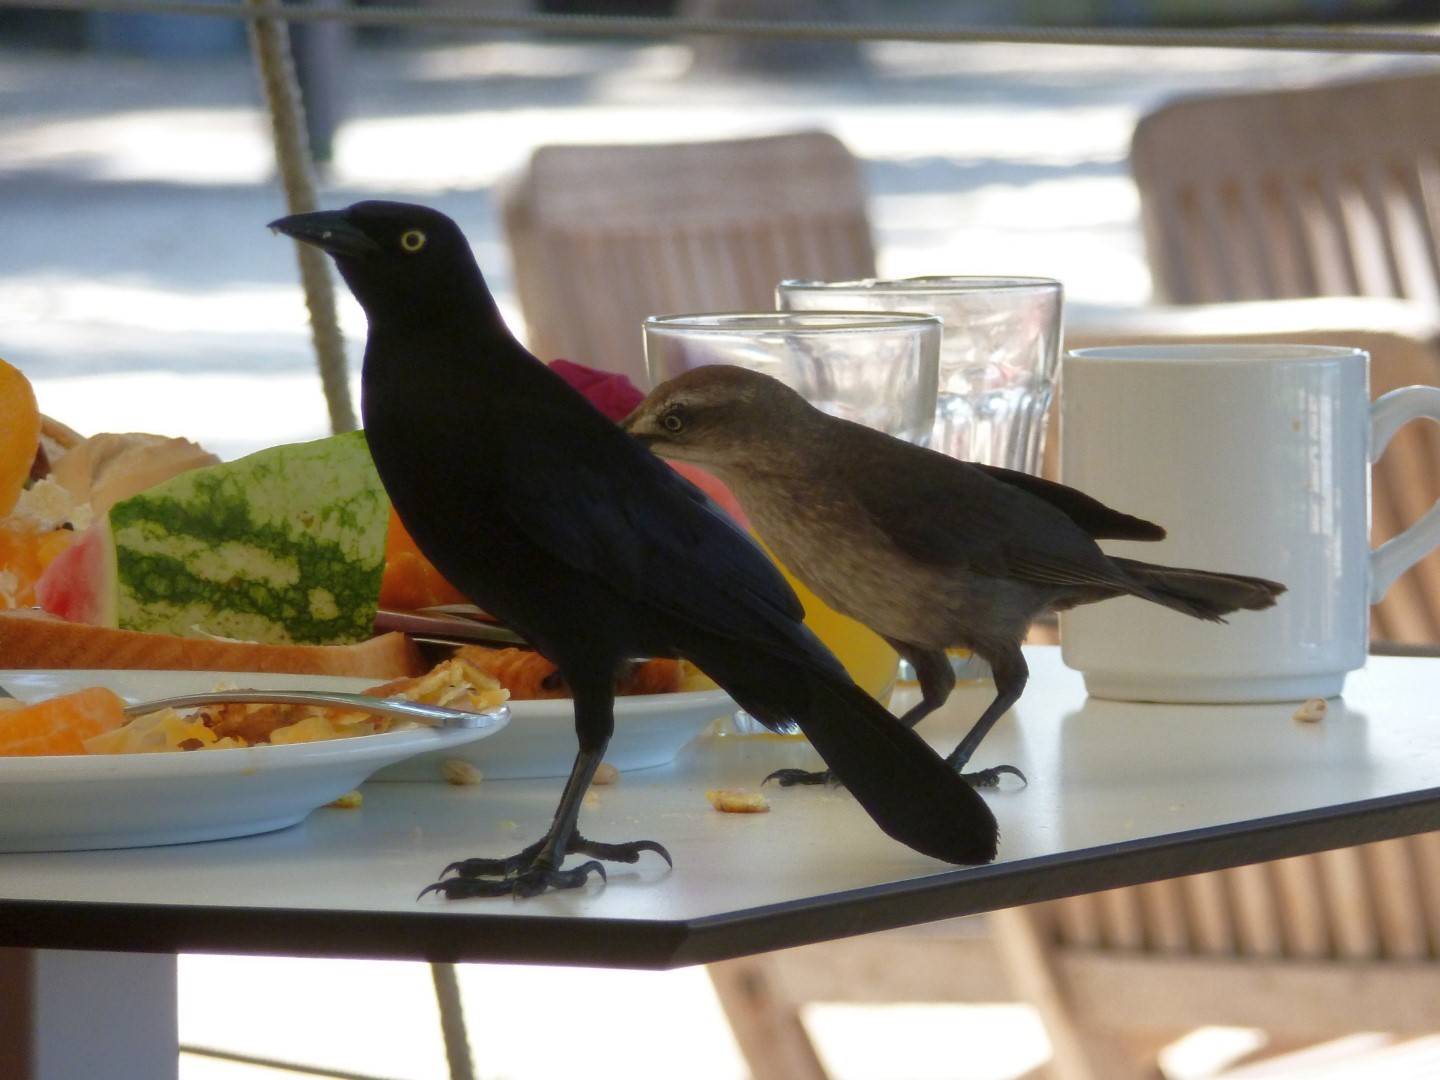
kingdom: Animalia
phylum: Chordata
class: Aves
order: Passeriformes
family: Icteridae
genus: Quiscalus
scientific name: Quiscalus lugubris
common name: Carib grackle
